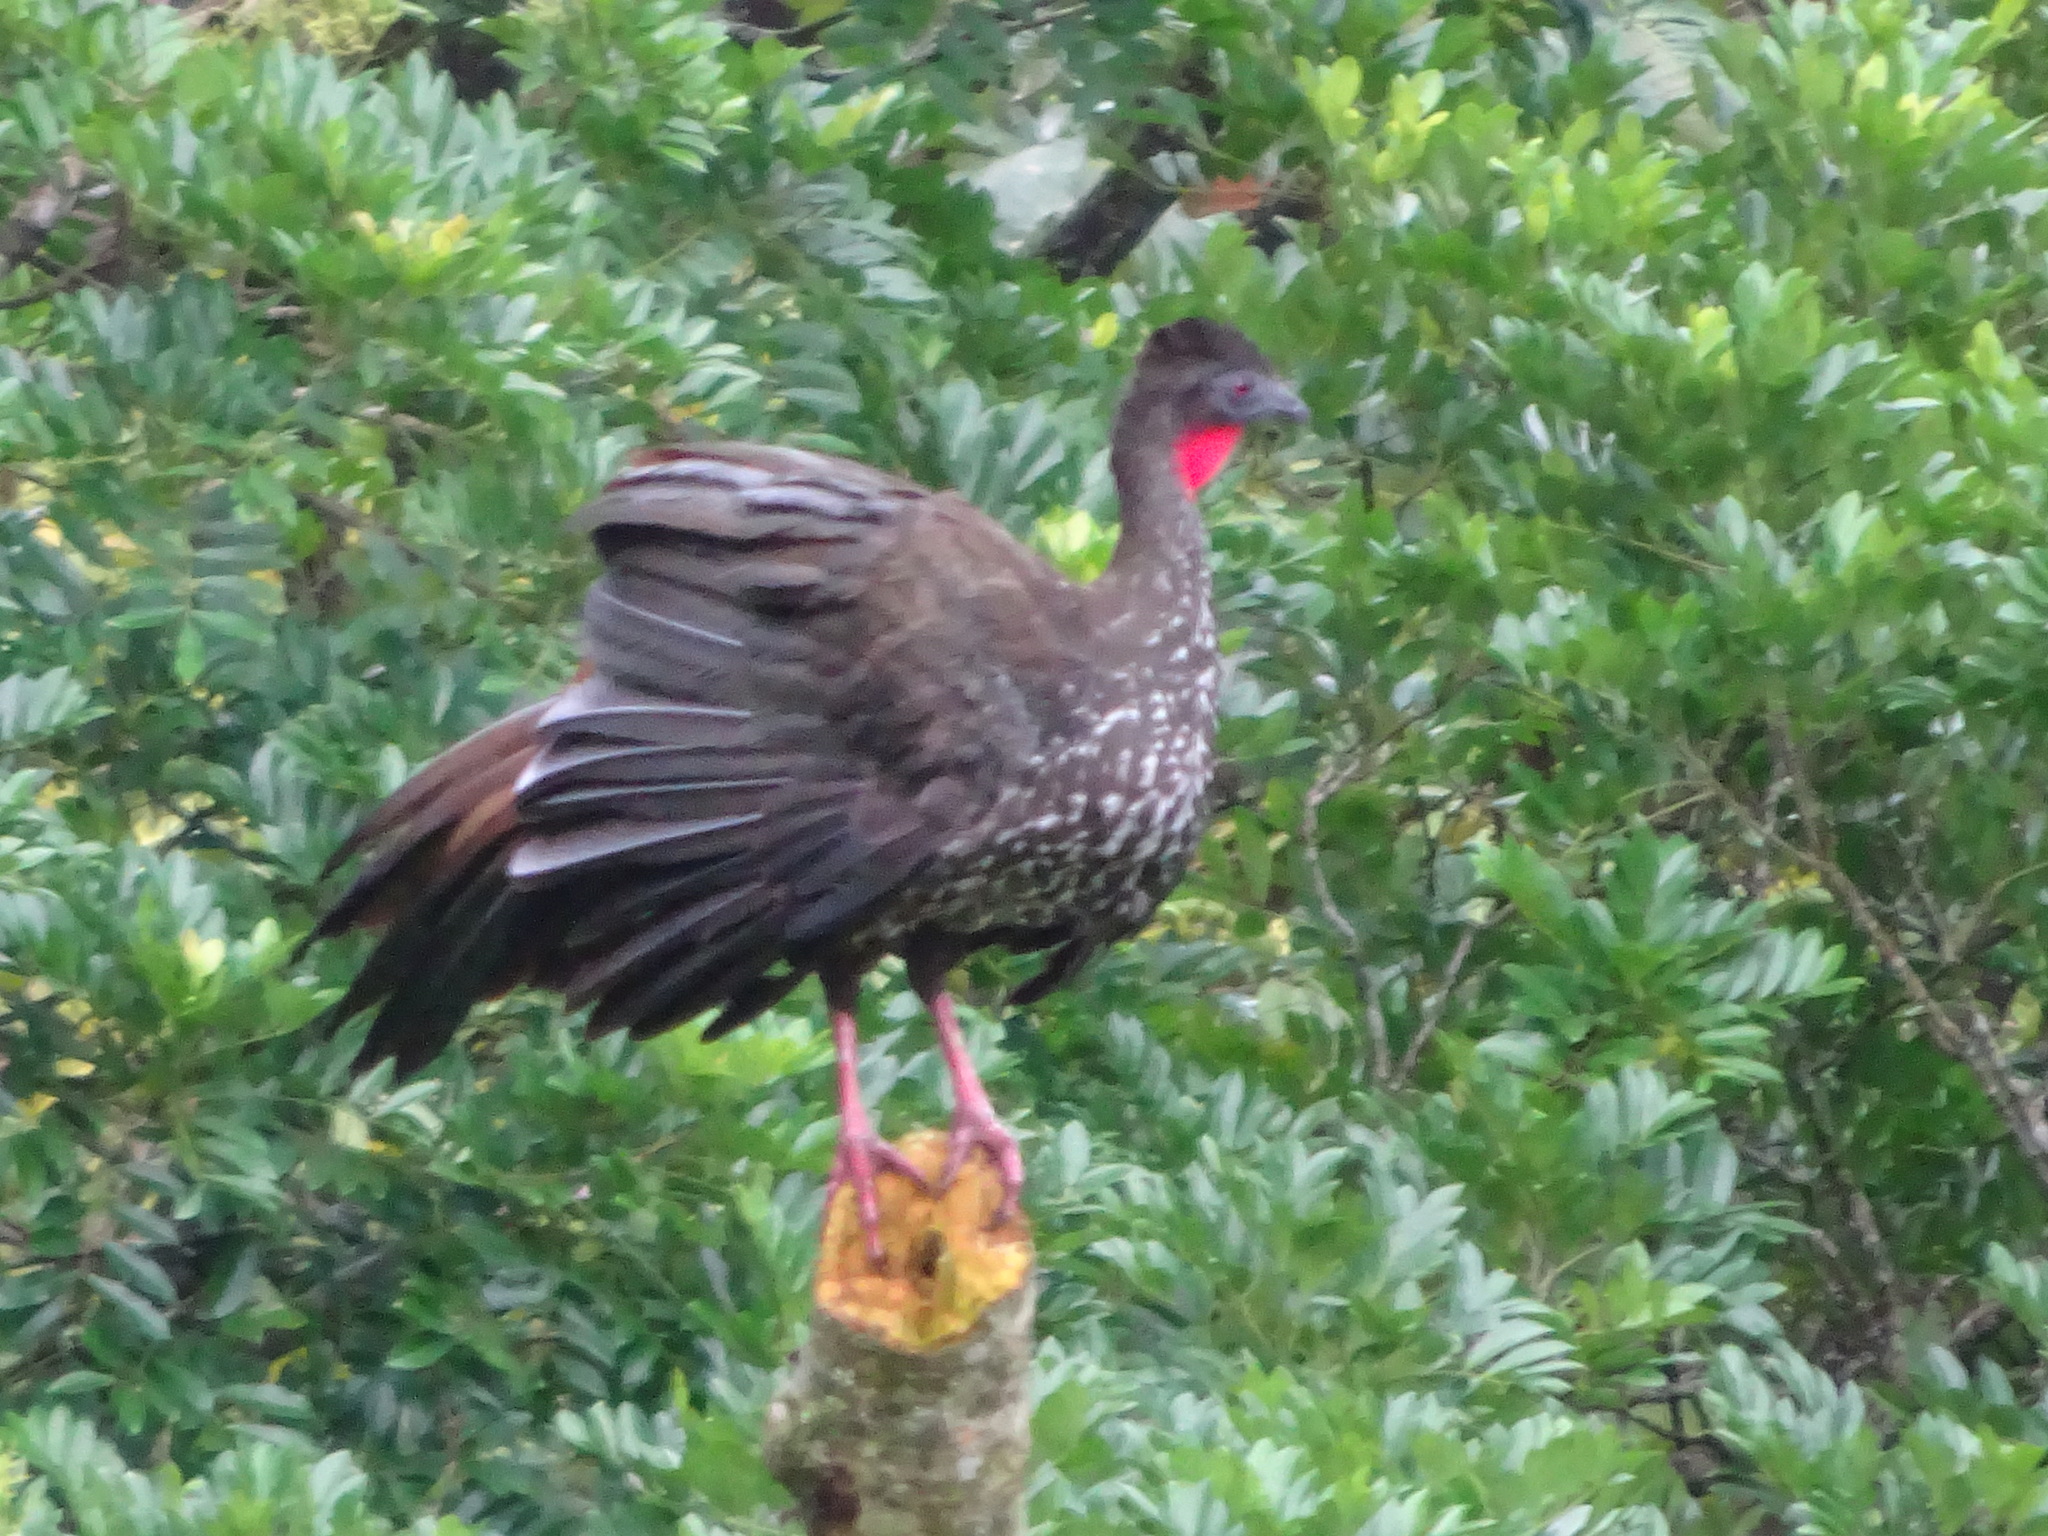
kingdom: Animalia
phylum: Chordata
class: Aves
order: Galliformes
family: Cracidae
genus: Penelope
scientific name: Penelope purpurascens
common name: Crested guan
